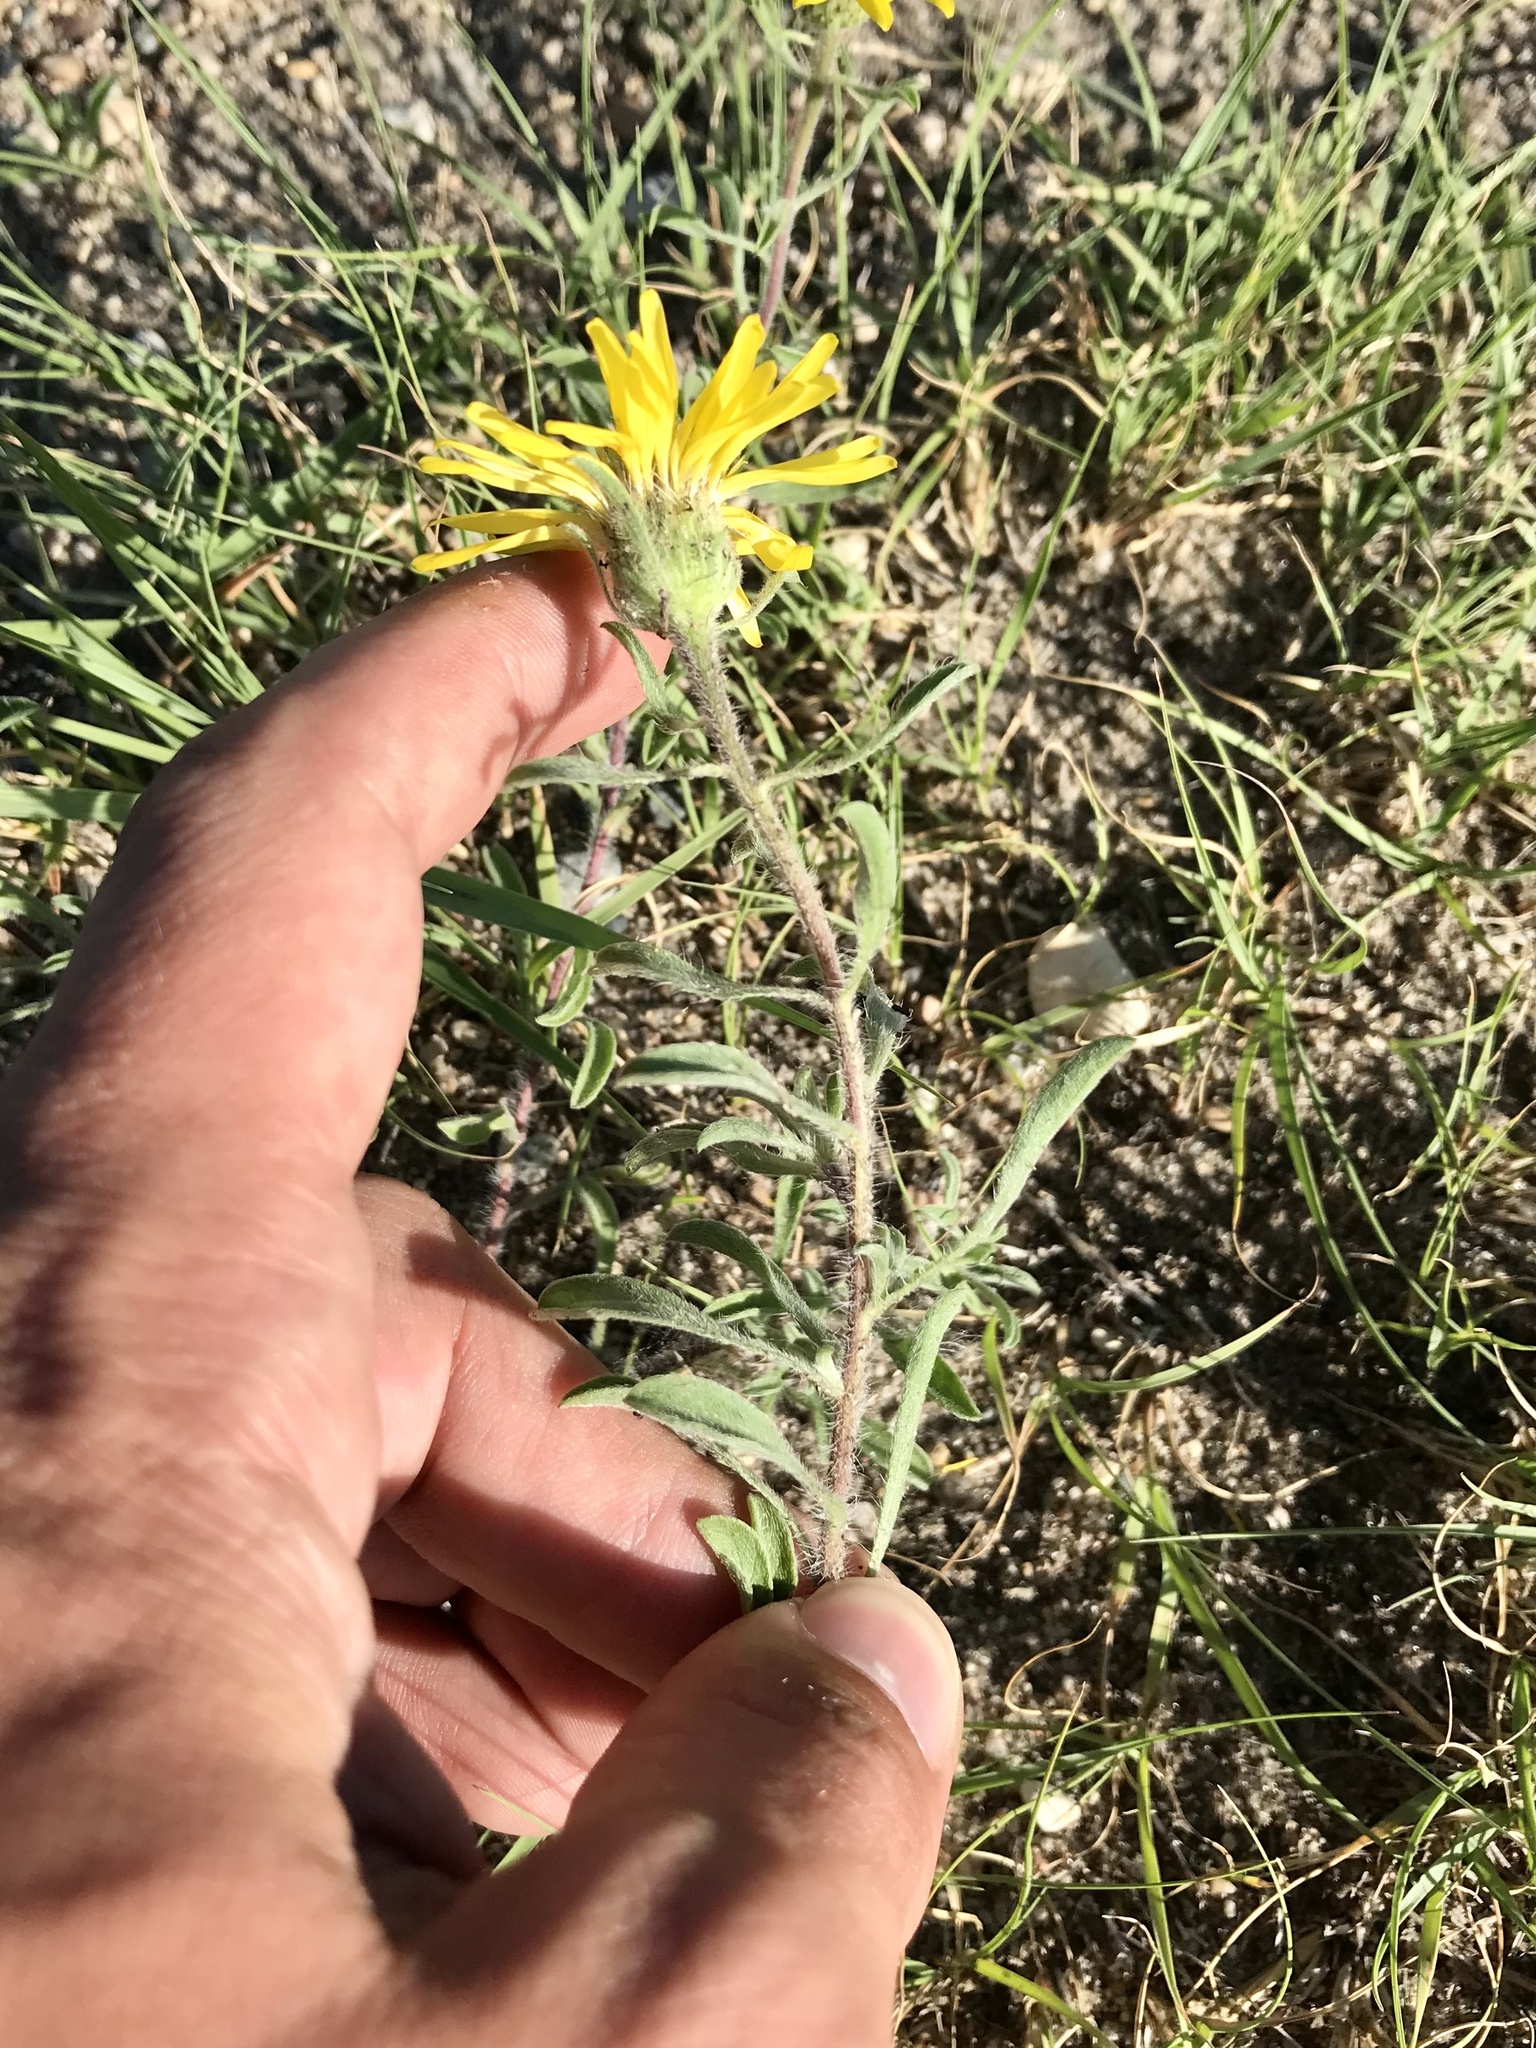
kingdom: Plantae
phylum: Tracheophyta
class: Magnoliopsida
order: Asterales
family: Asteraceae
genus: Heterotheca
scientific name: Heterotheca villosa
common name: Hairy false goldenaster
